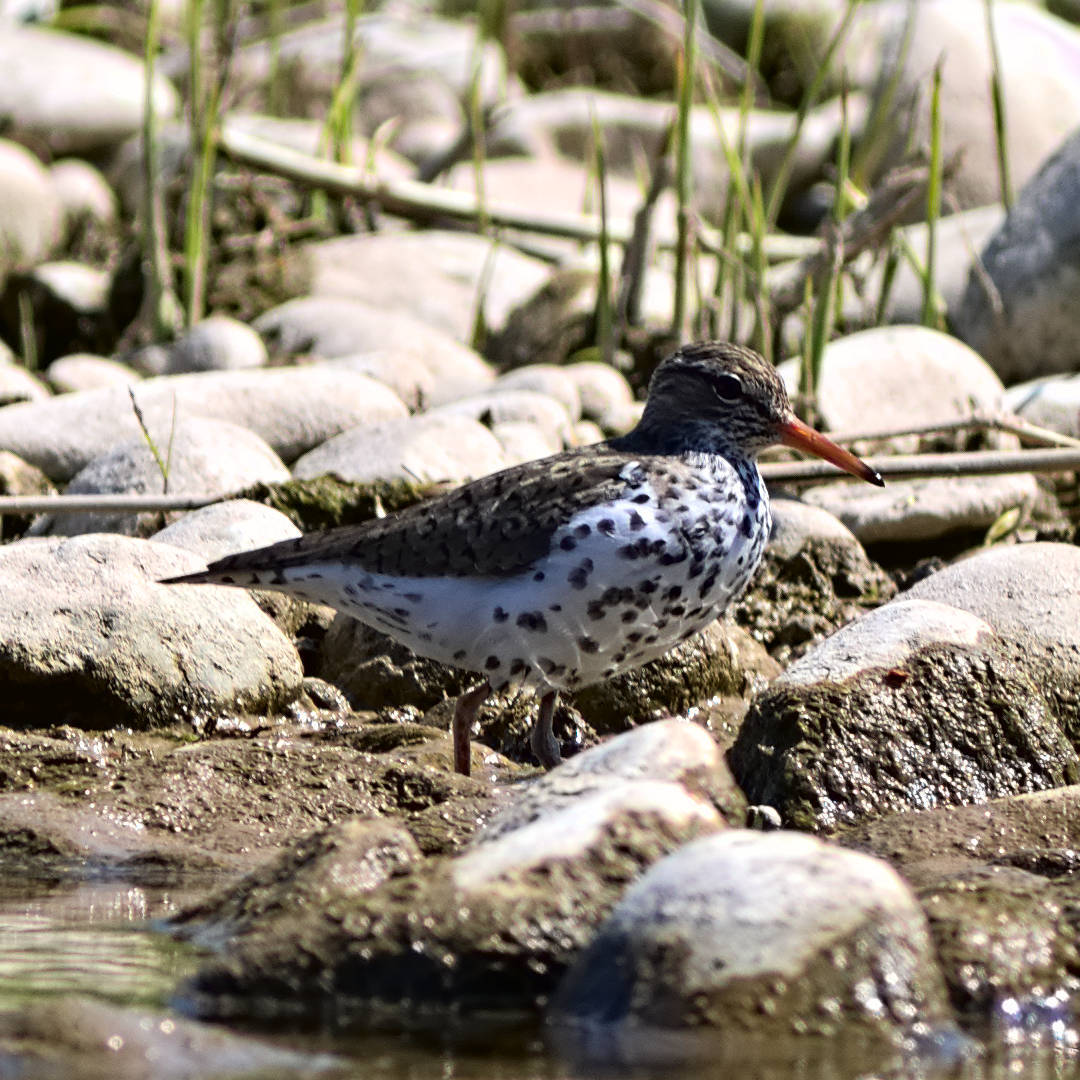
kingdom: Animalia
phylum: Chordata
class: Aves
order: Charadriiformes
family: Scolopacidae
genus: Actitis
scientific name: Actitis macularius
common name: Spotted sandpiper
